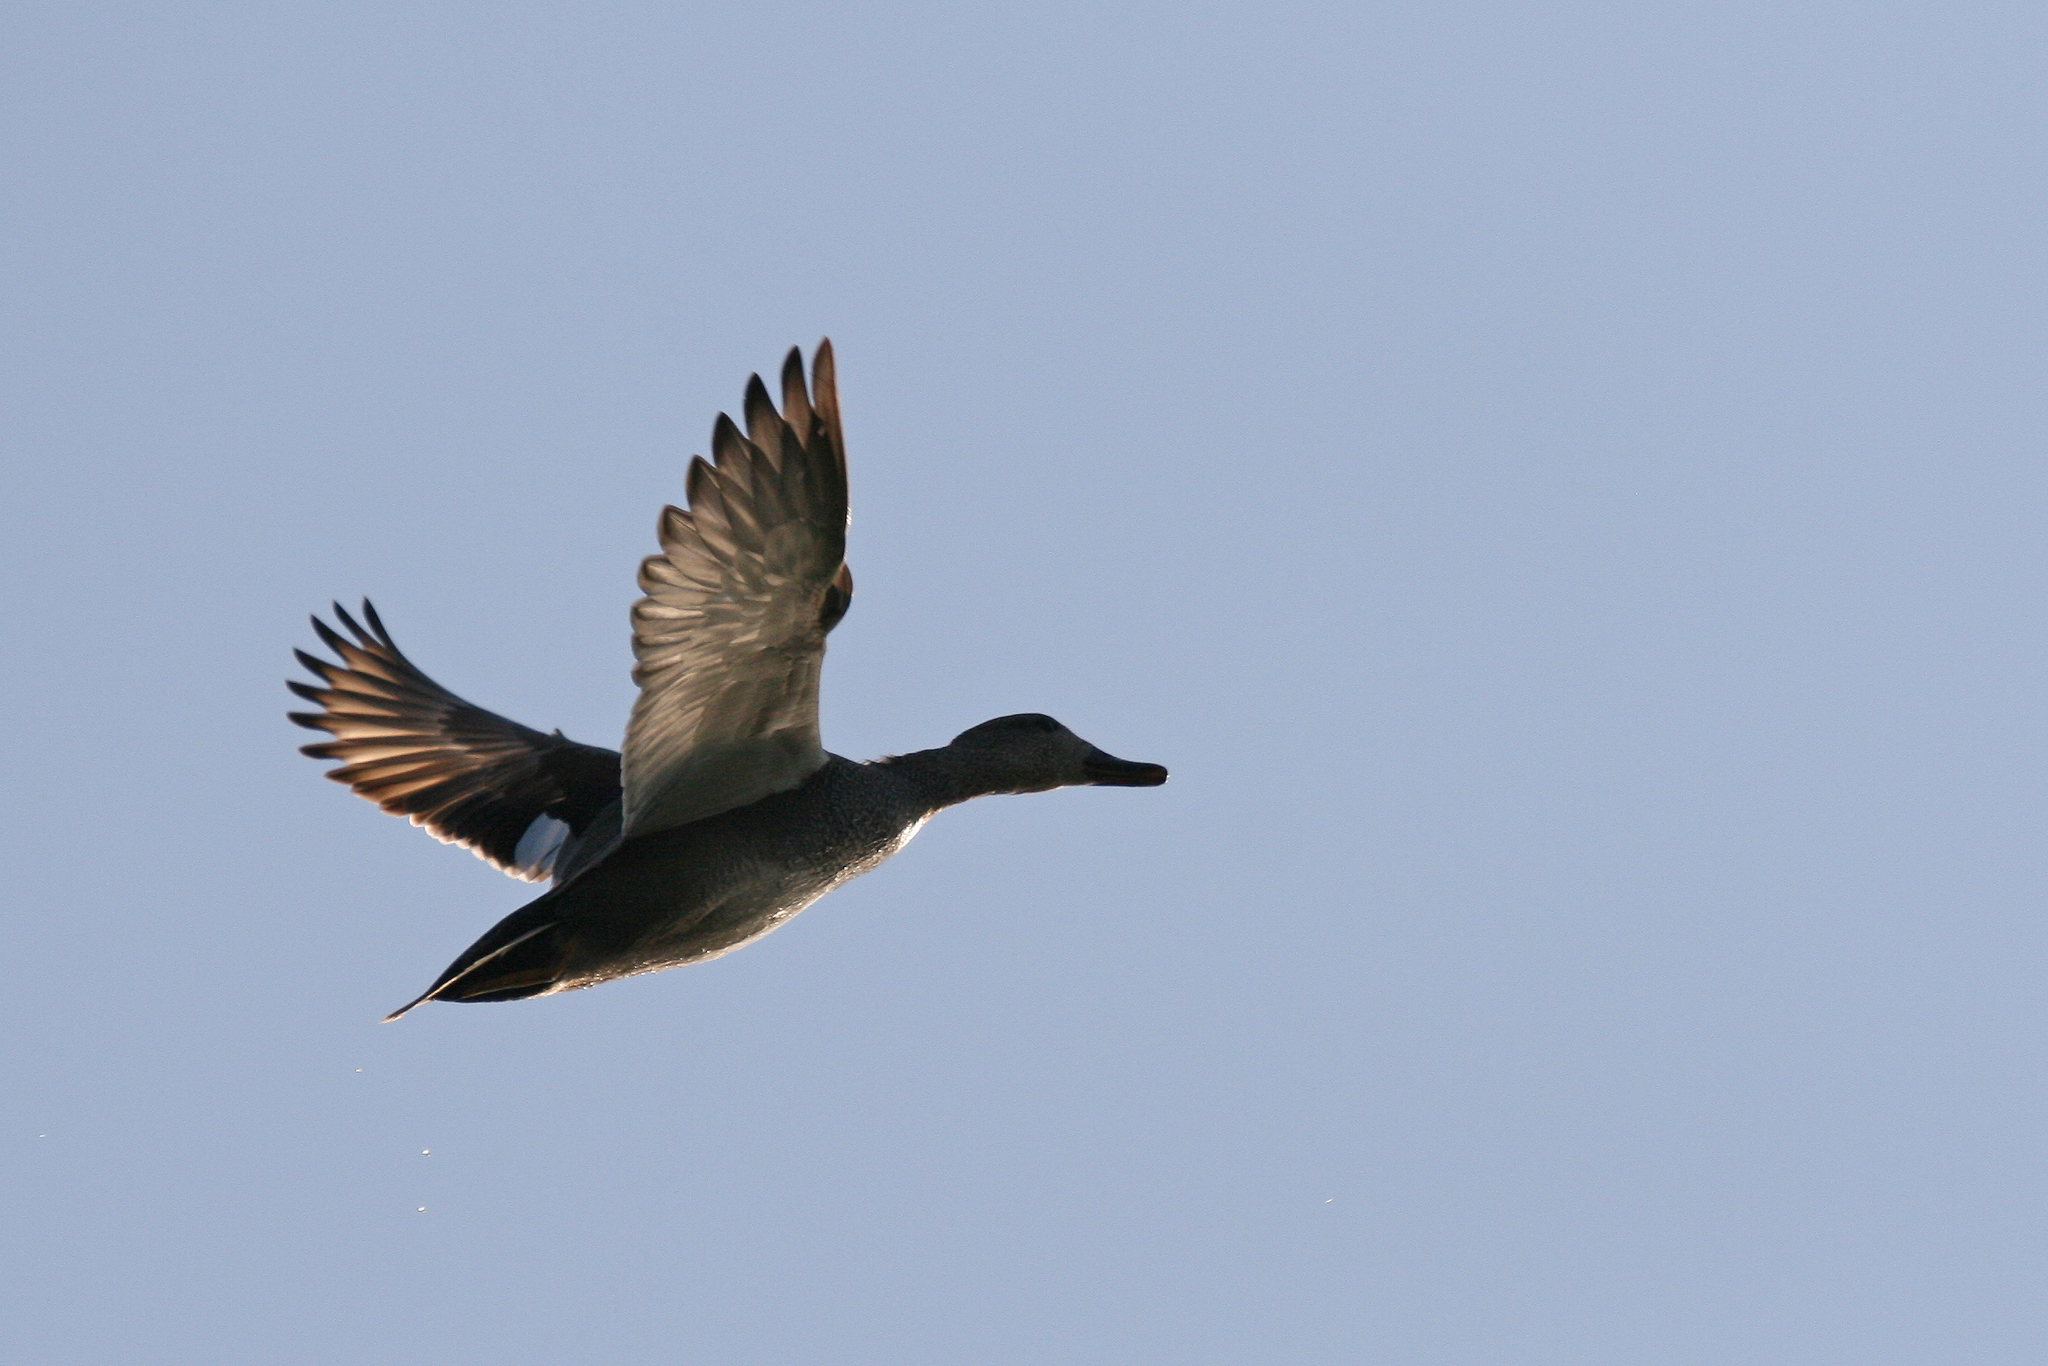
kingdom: Animalia
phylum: Chordata
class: Aves
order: Anseriformes
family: Anatidae
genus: Mareca
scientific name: Mareca strepera
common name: Gadwall
